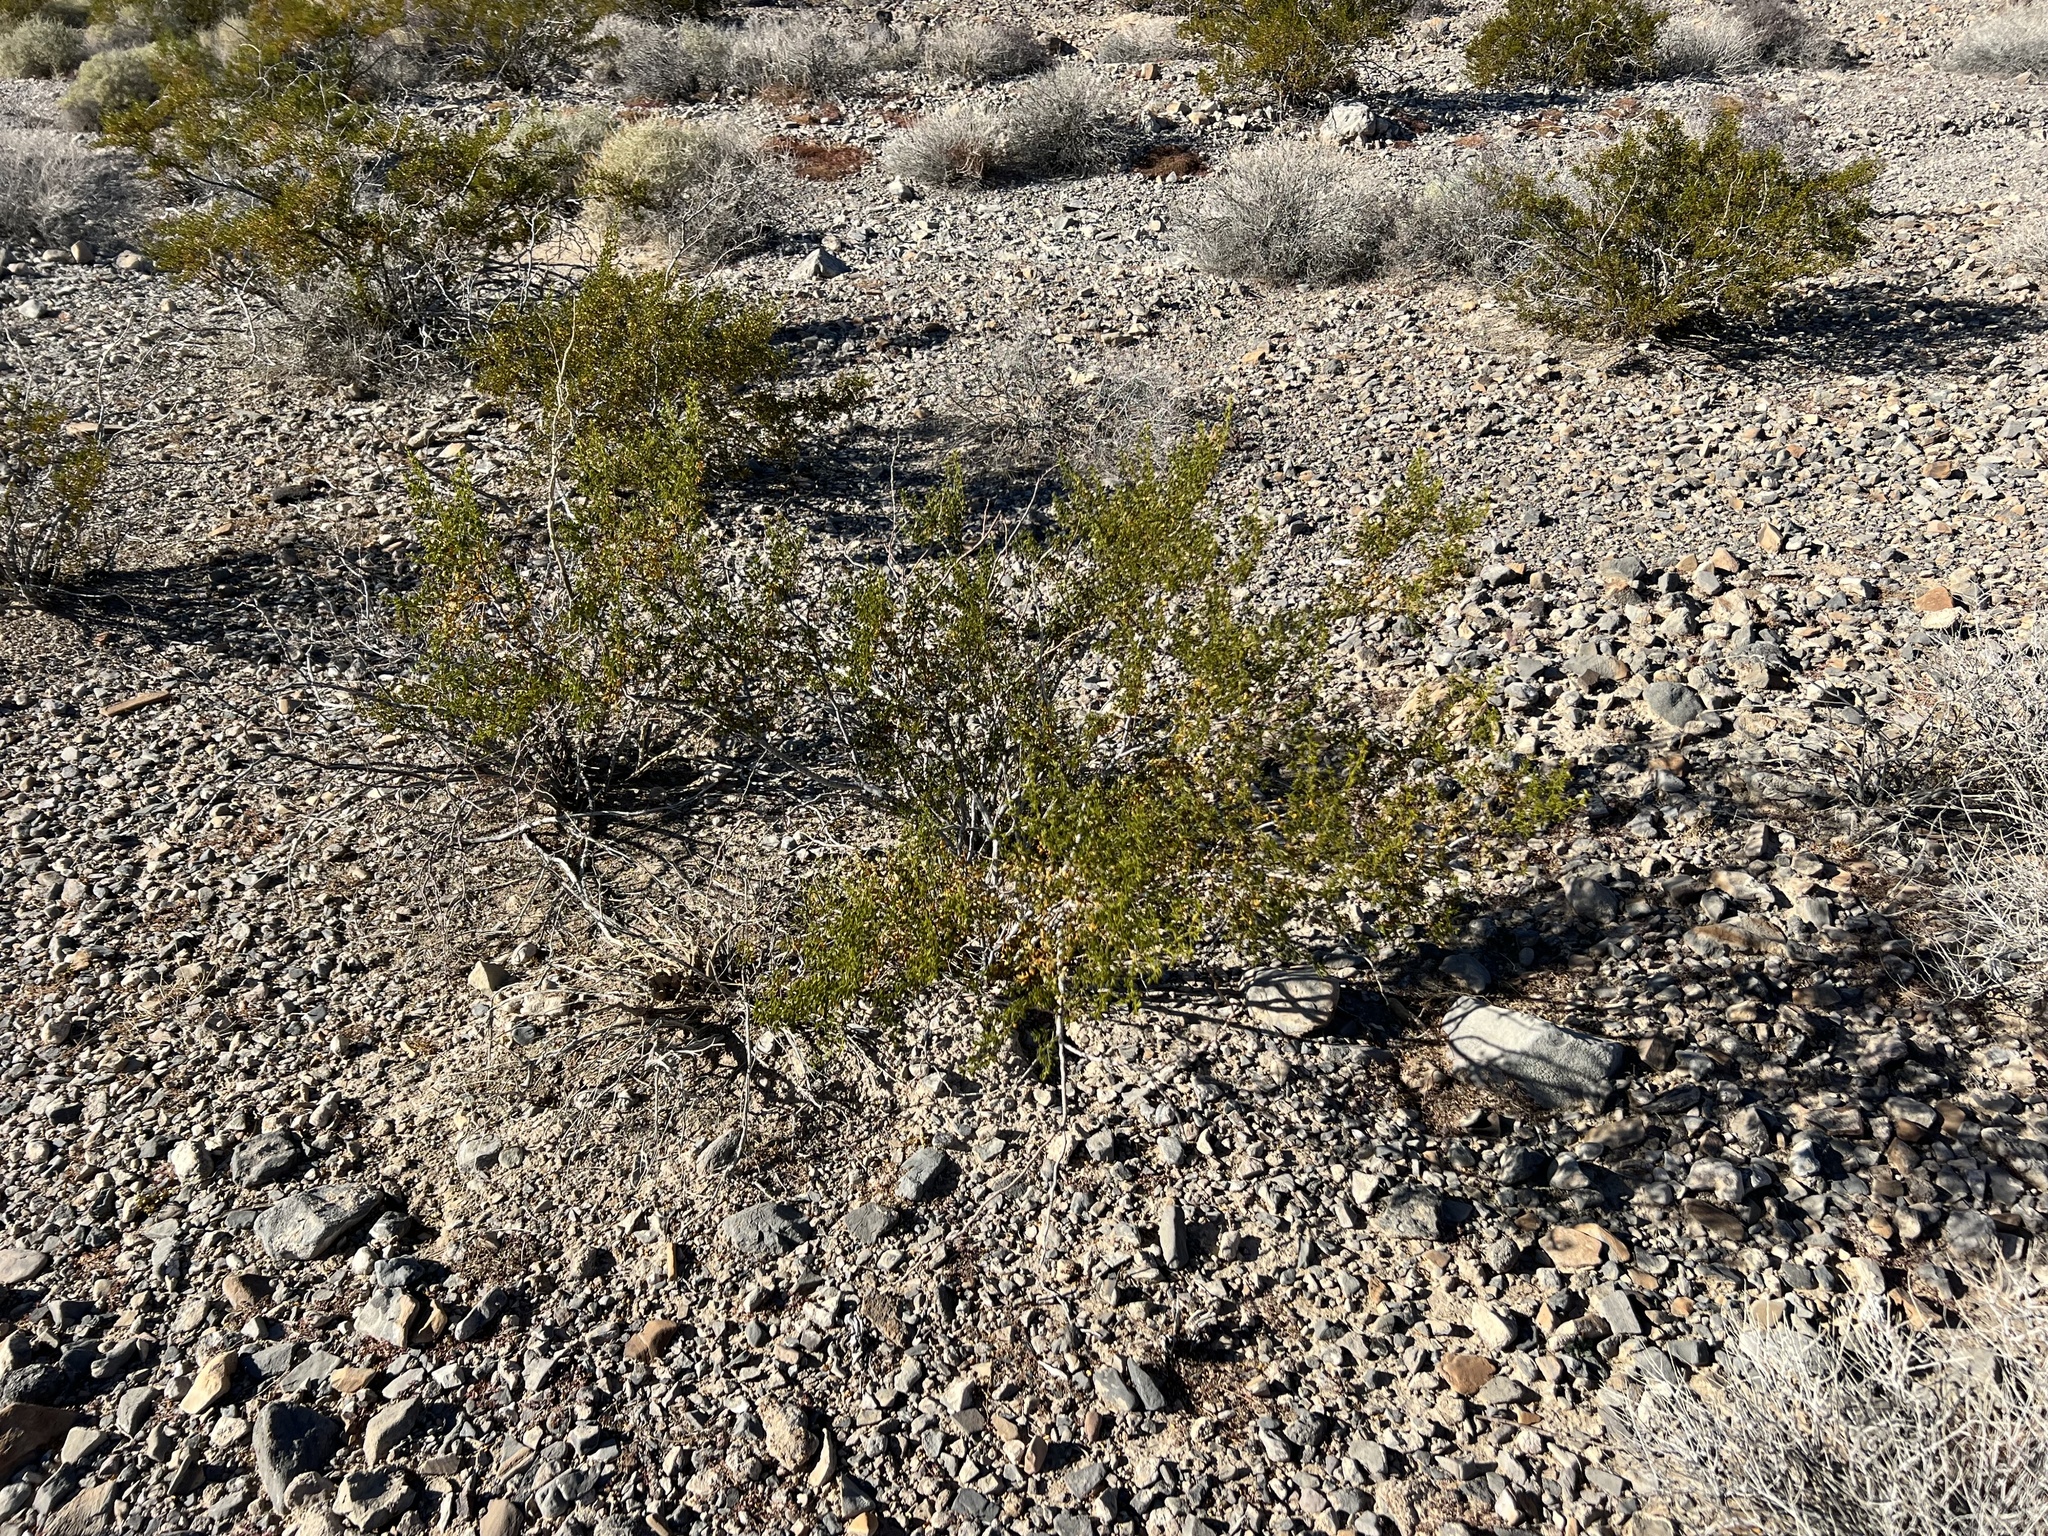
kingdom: Plantae
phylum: Tracheophyta
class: Magnoliopsida
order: Zygophyllales
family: Zygophyllaceae
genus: Larrea
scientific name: Larrea tridentata
